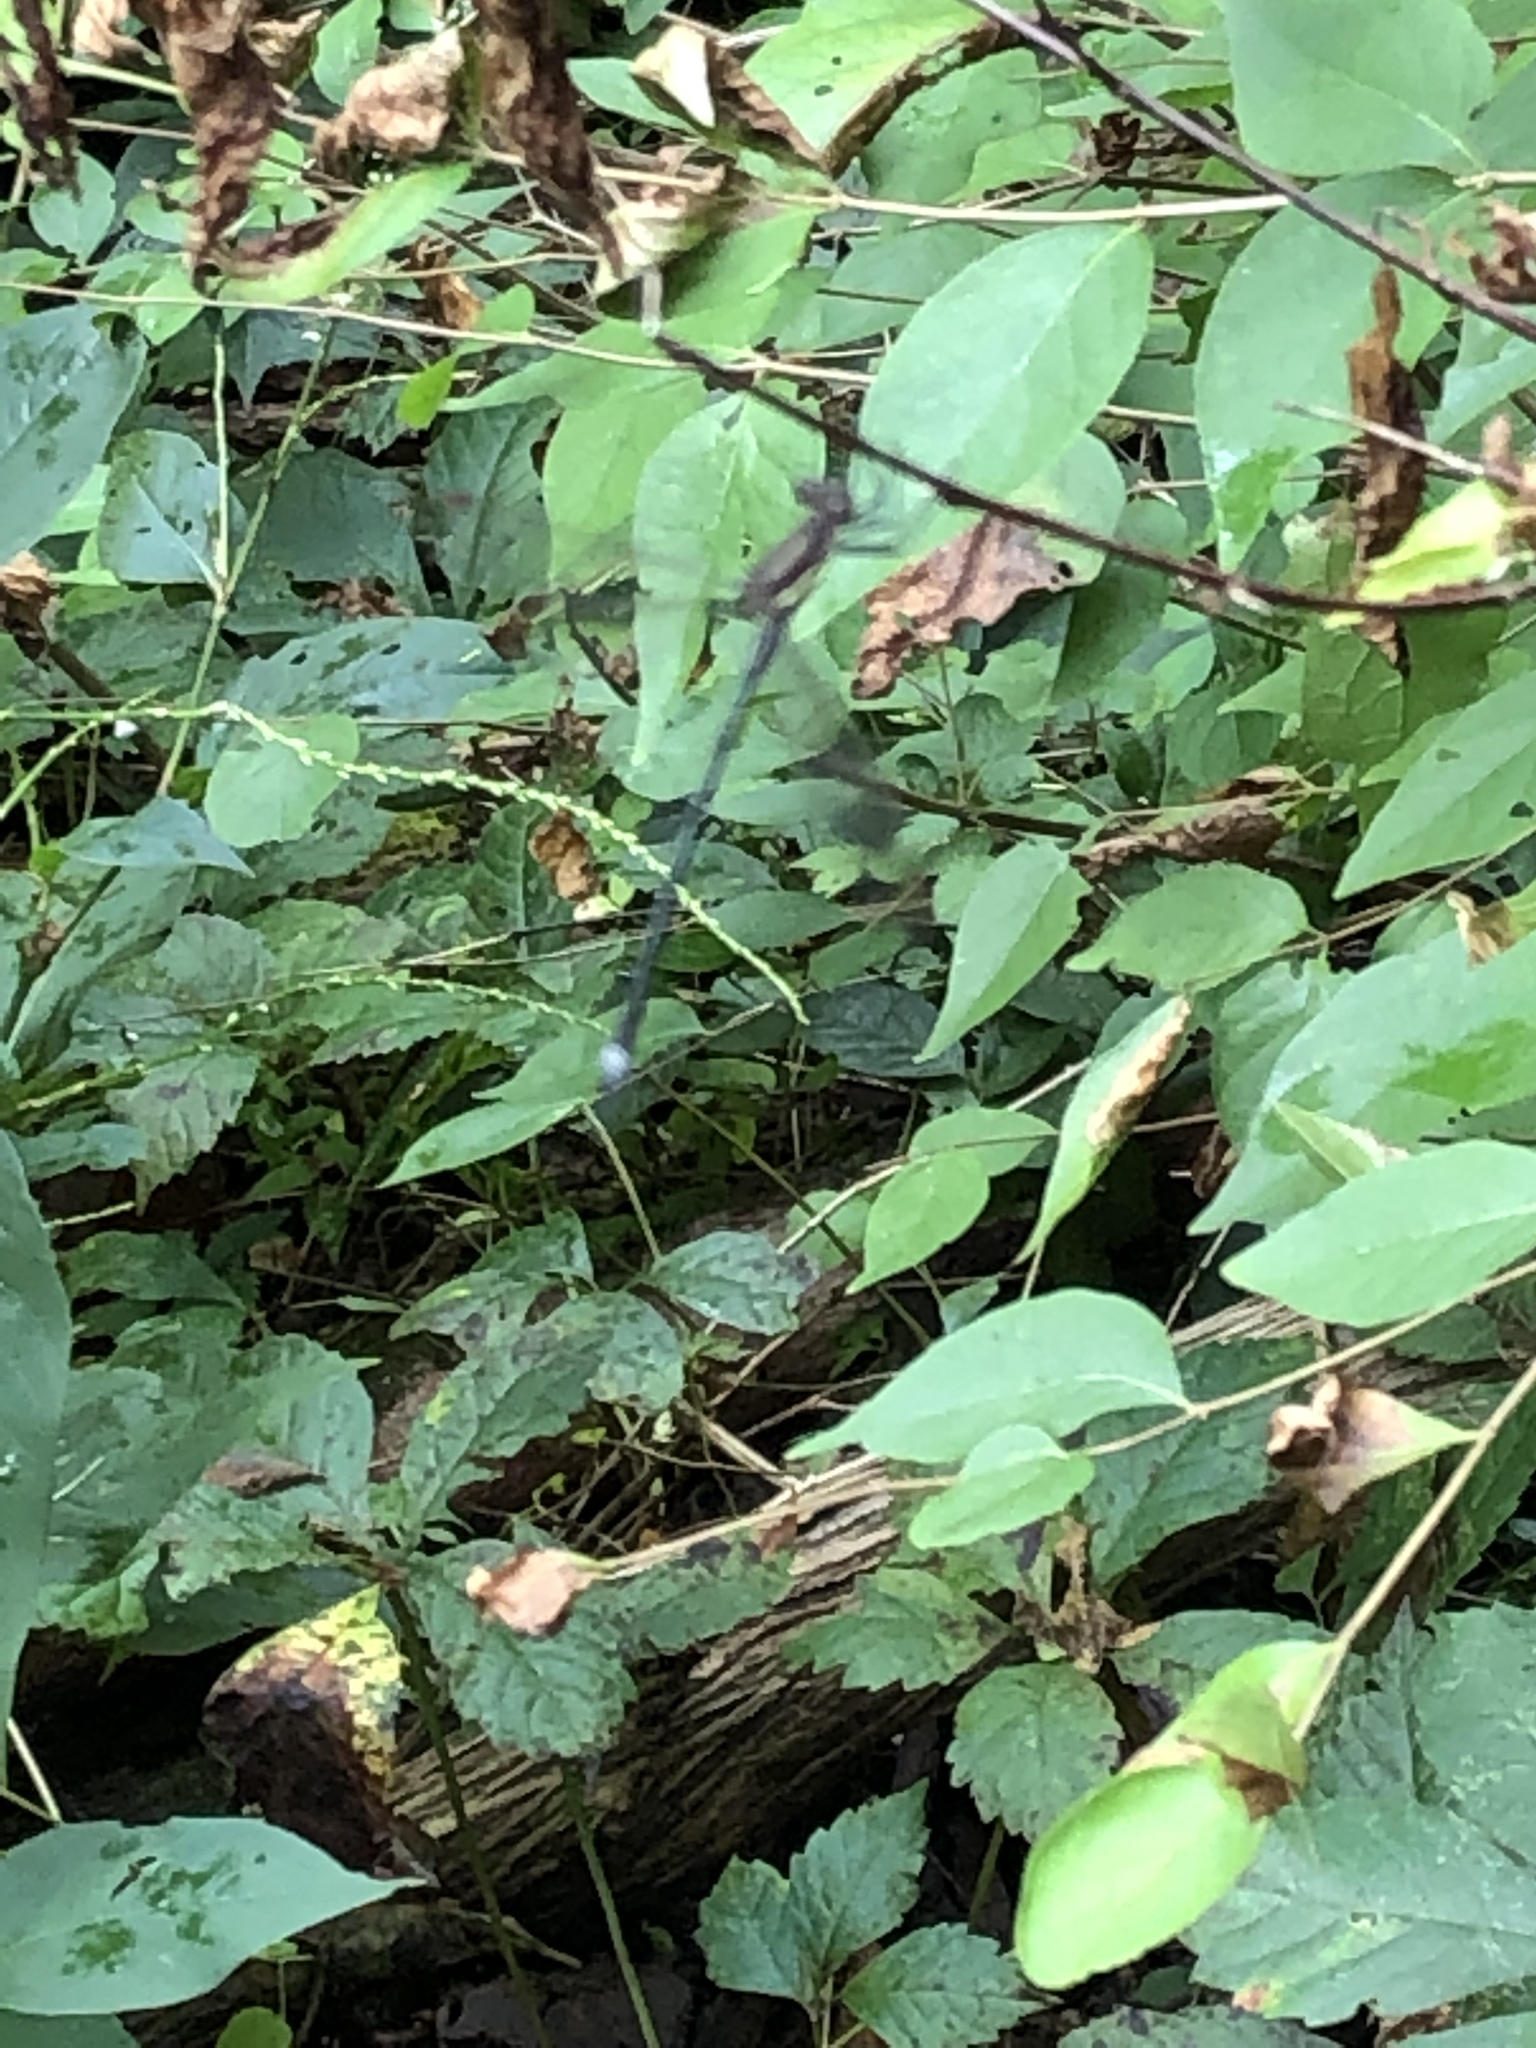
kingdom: Animalia
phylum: Arthropoda
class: Insecta
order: Odonata
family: Lestidae
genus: Archilestes
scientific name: Archilestes grandis
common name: Great spreadwing
